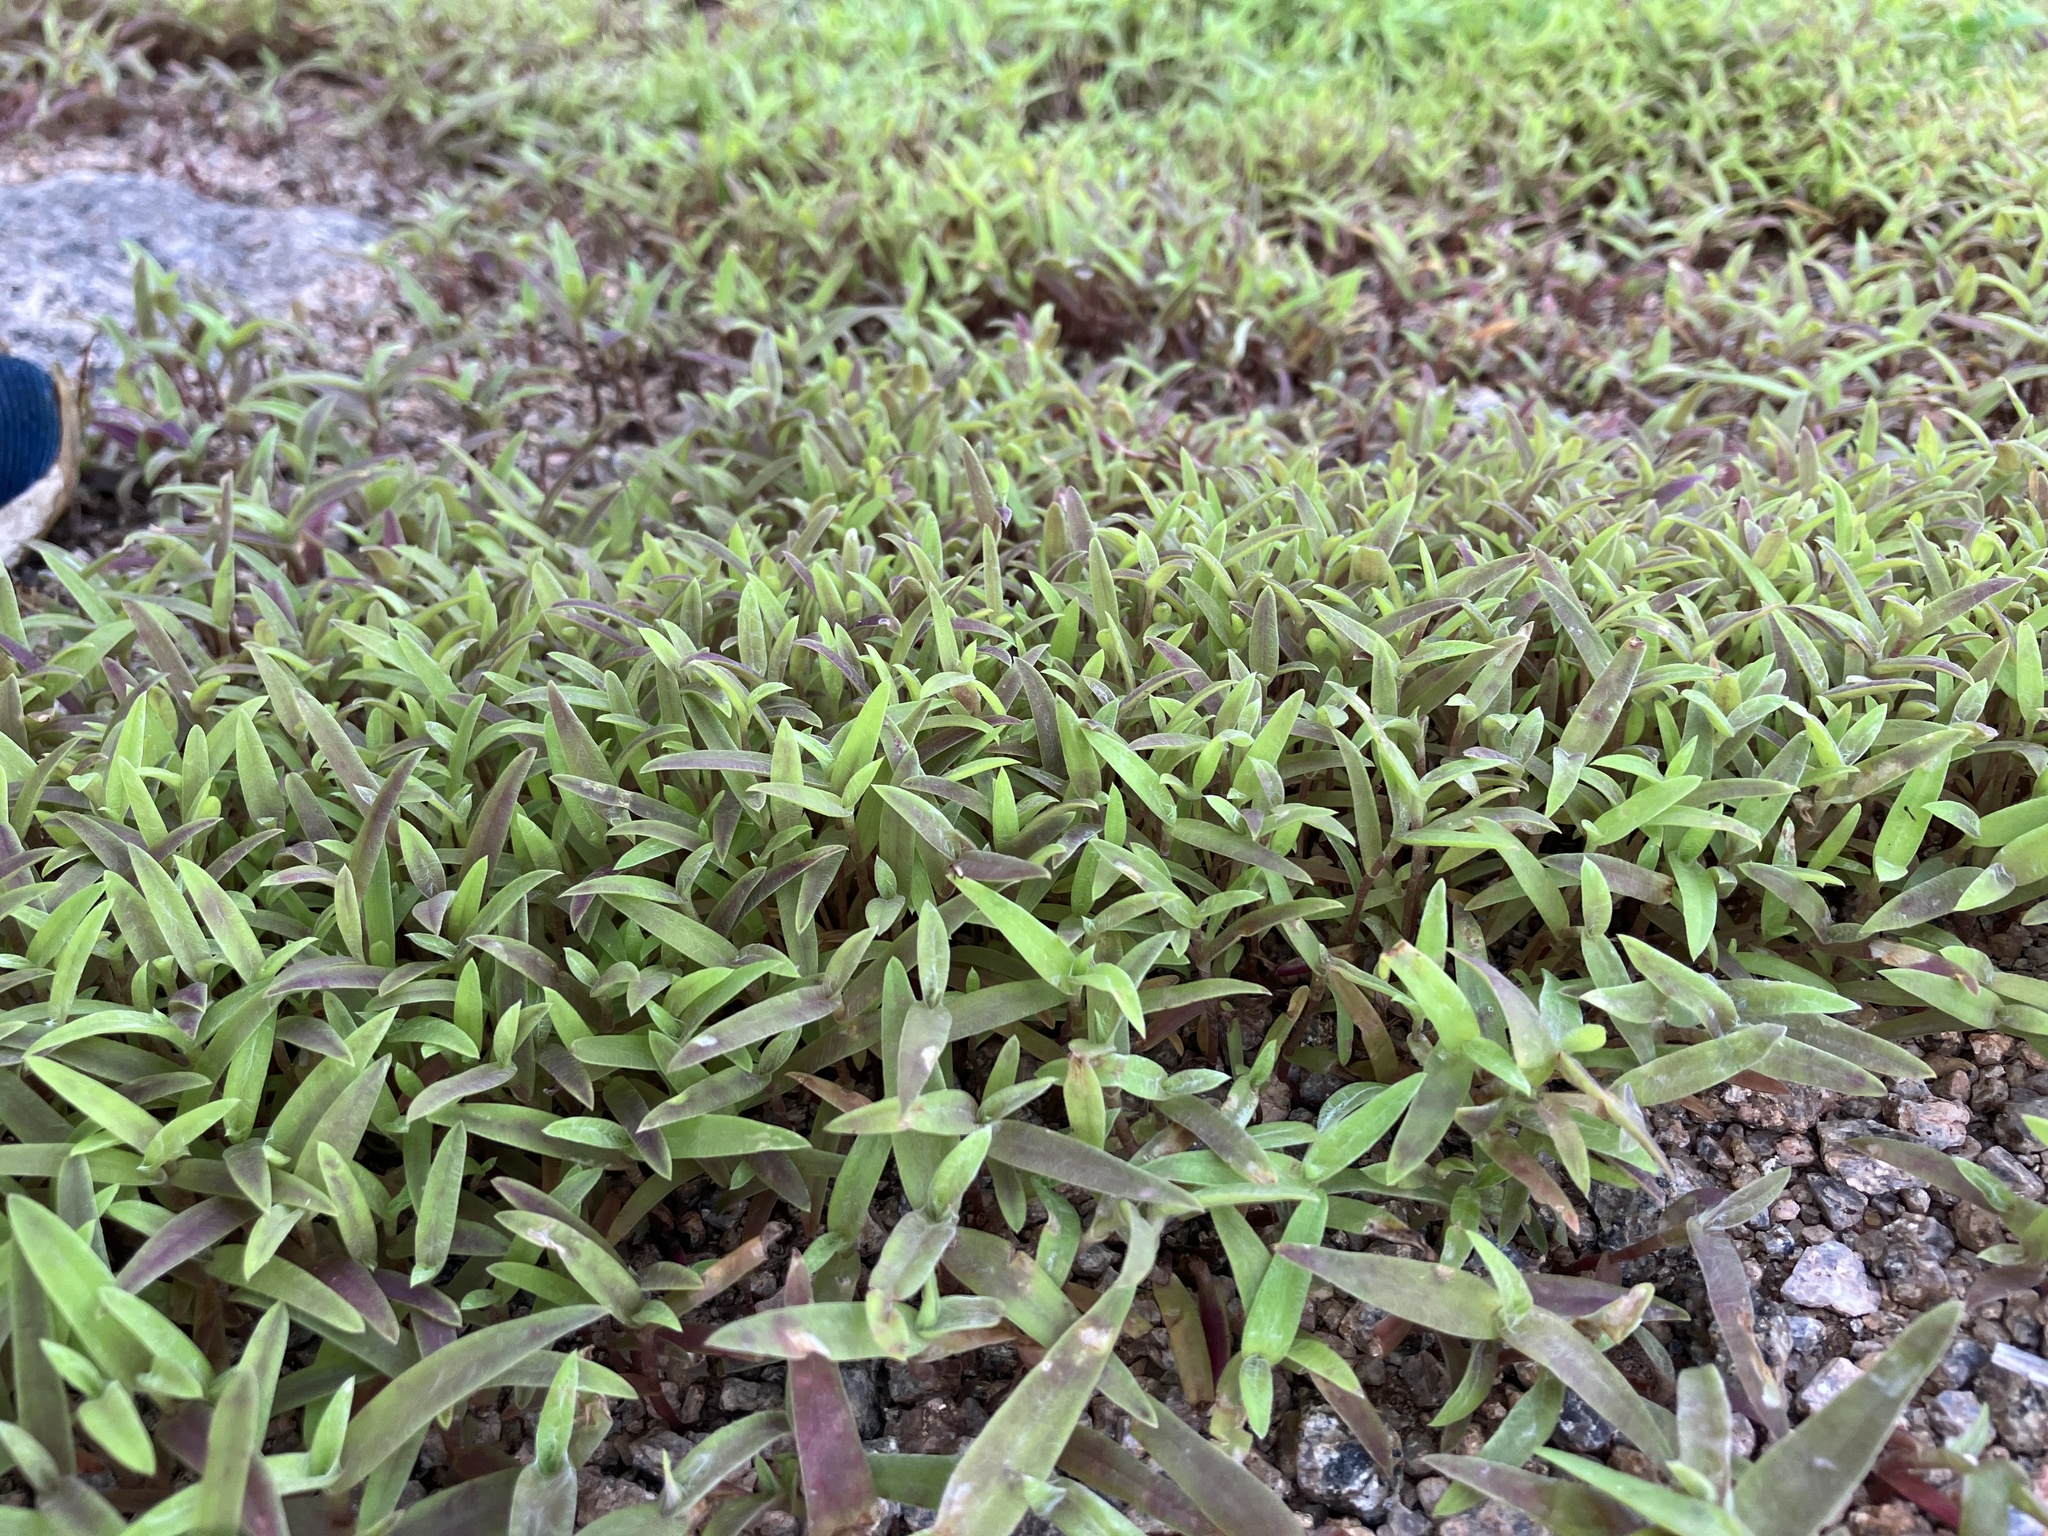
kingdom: Plantae
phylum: Tracheophyta
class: Liliopsida
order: Commelinales
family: Commelinaceae
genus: Cyanotis
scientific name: Cyanotis fasciculata
